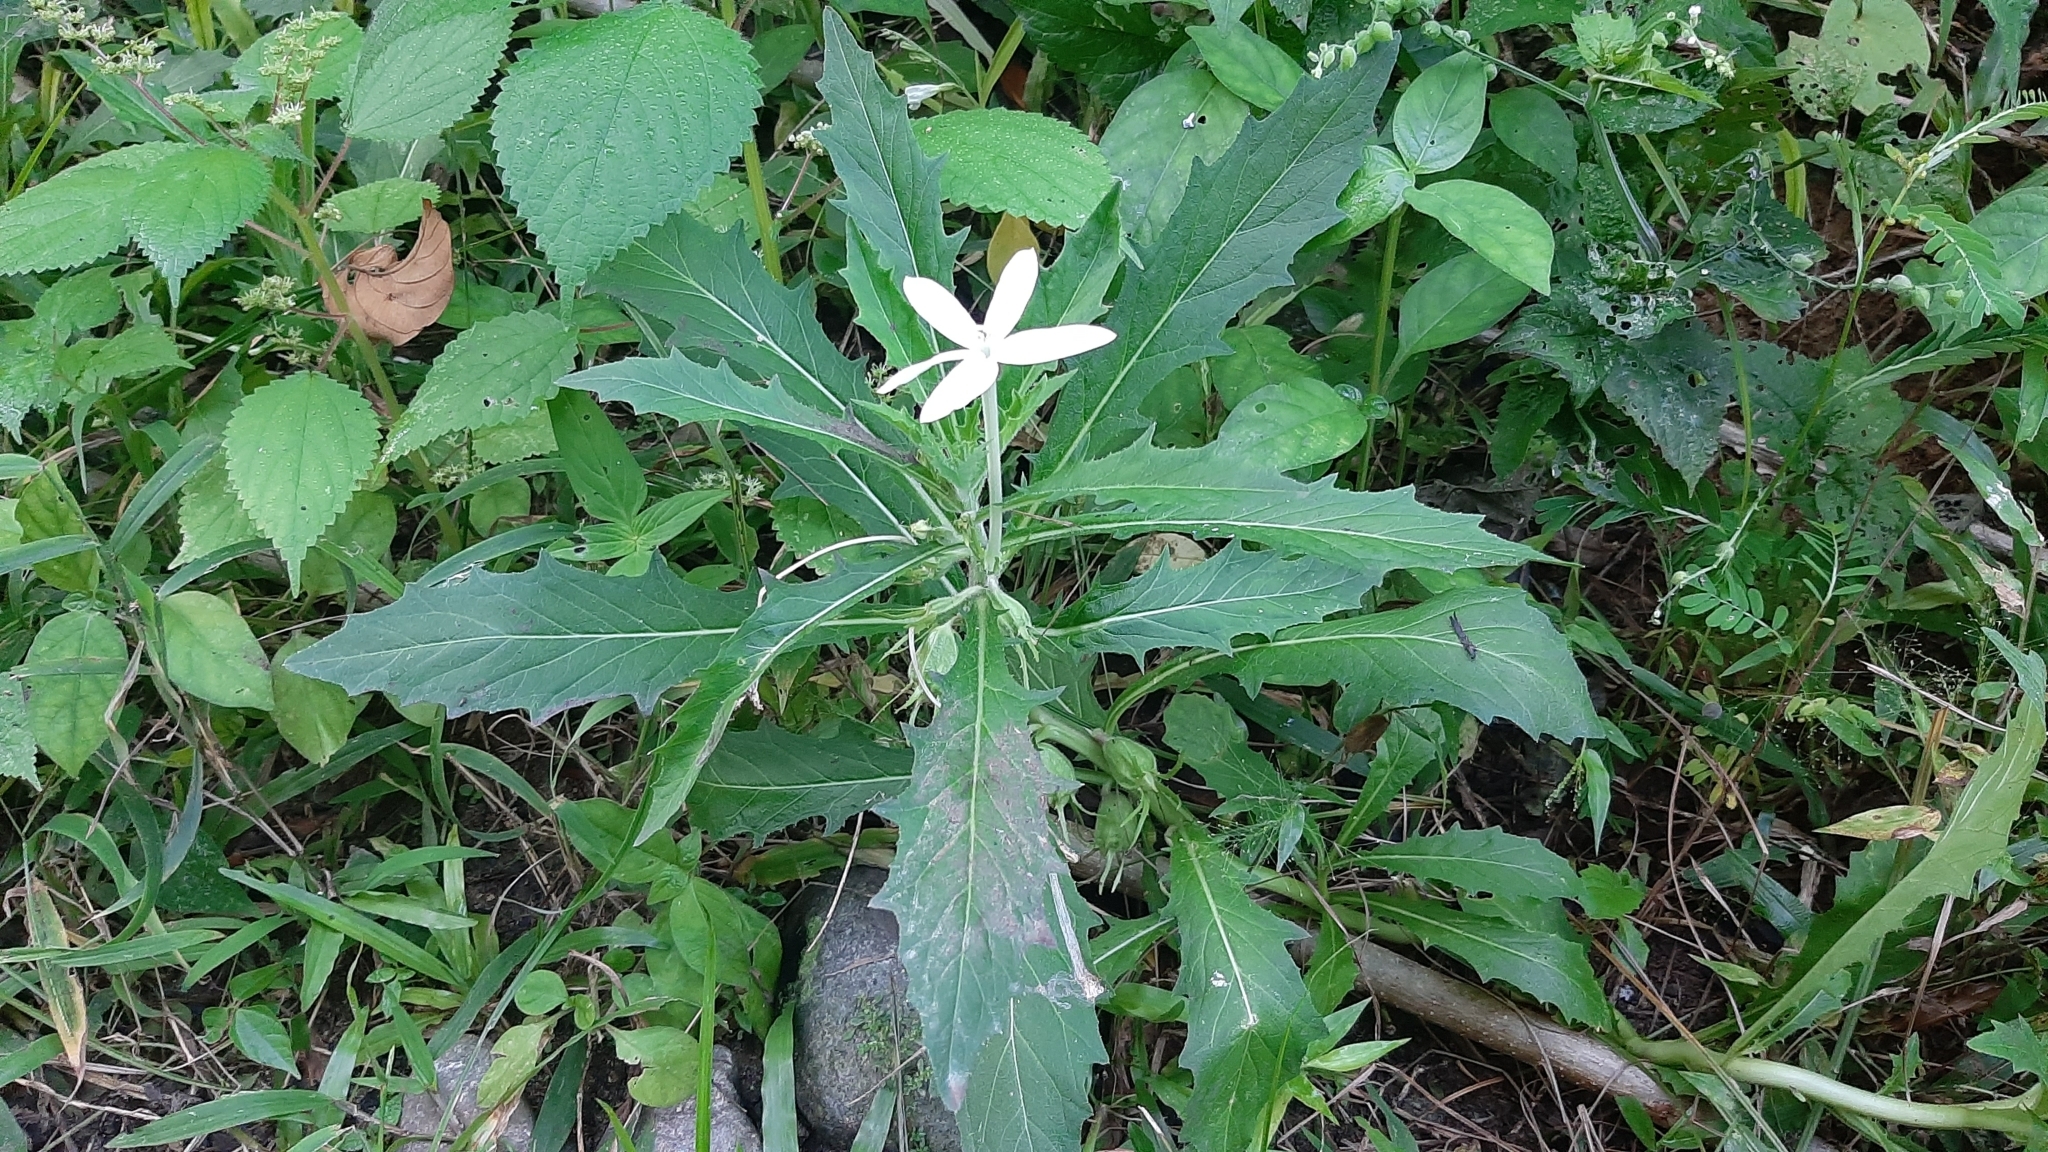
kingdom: Plantae
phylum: Tracheophyta
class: Magnoliopsida
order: Asterales
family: Campanulaceae
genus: Hippobroma
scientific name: Hippobroma longiflora
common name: Madamfate
